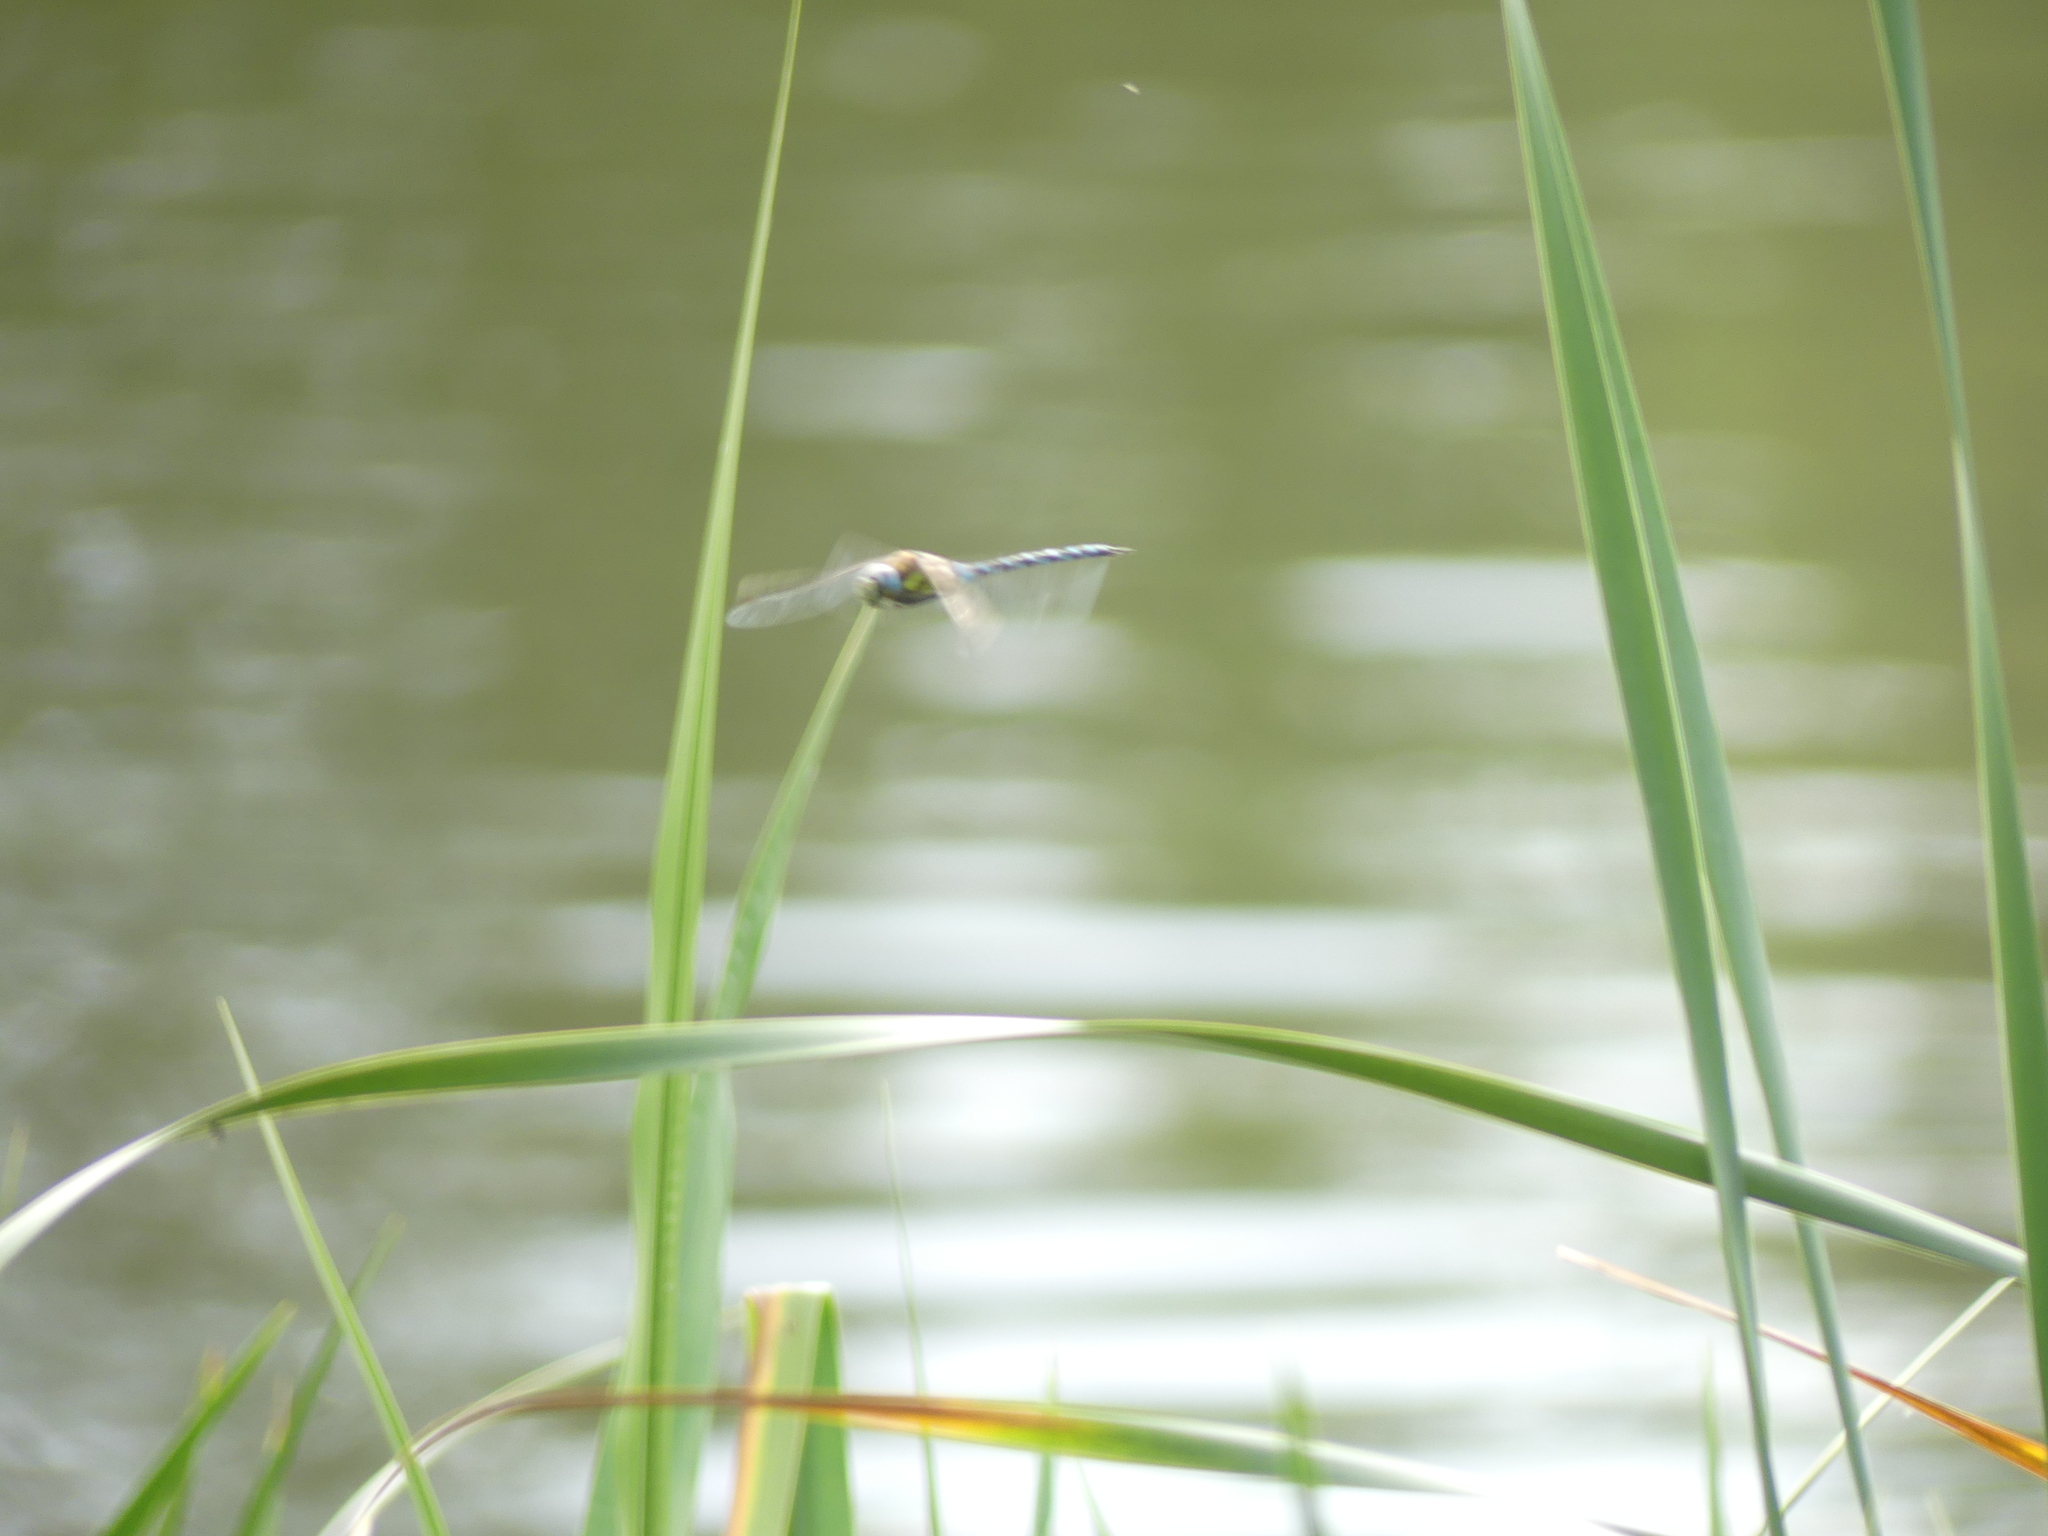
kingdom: Animalia
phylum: Arthropoda
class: Insecta
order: Odonata
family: Aeshnidae
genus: Aeshna
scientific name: Aeshna mixta
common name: Migrant hawker
